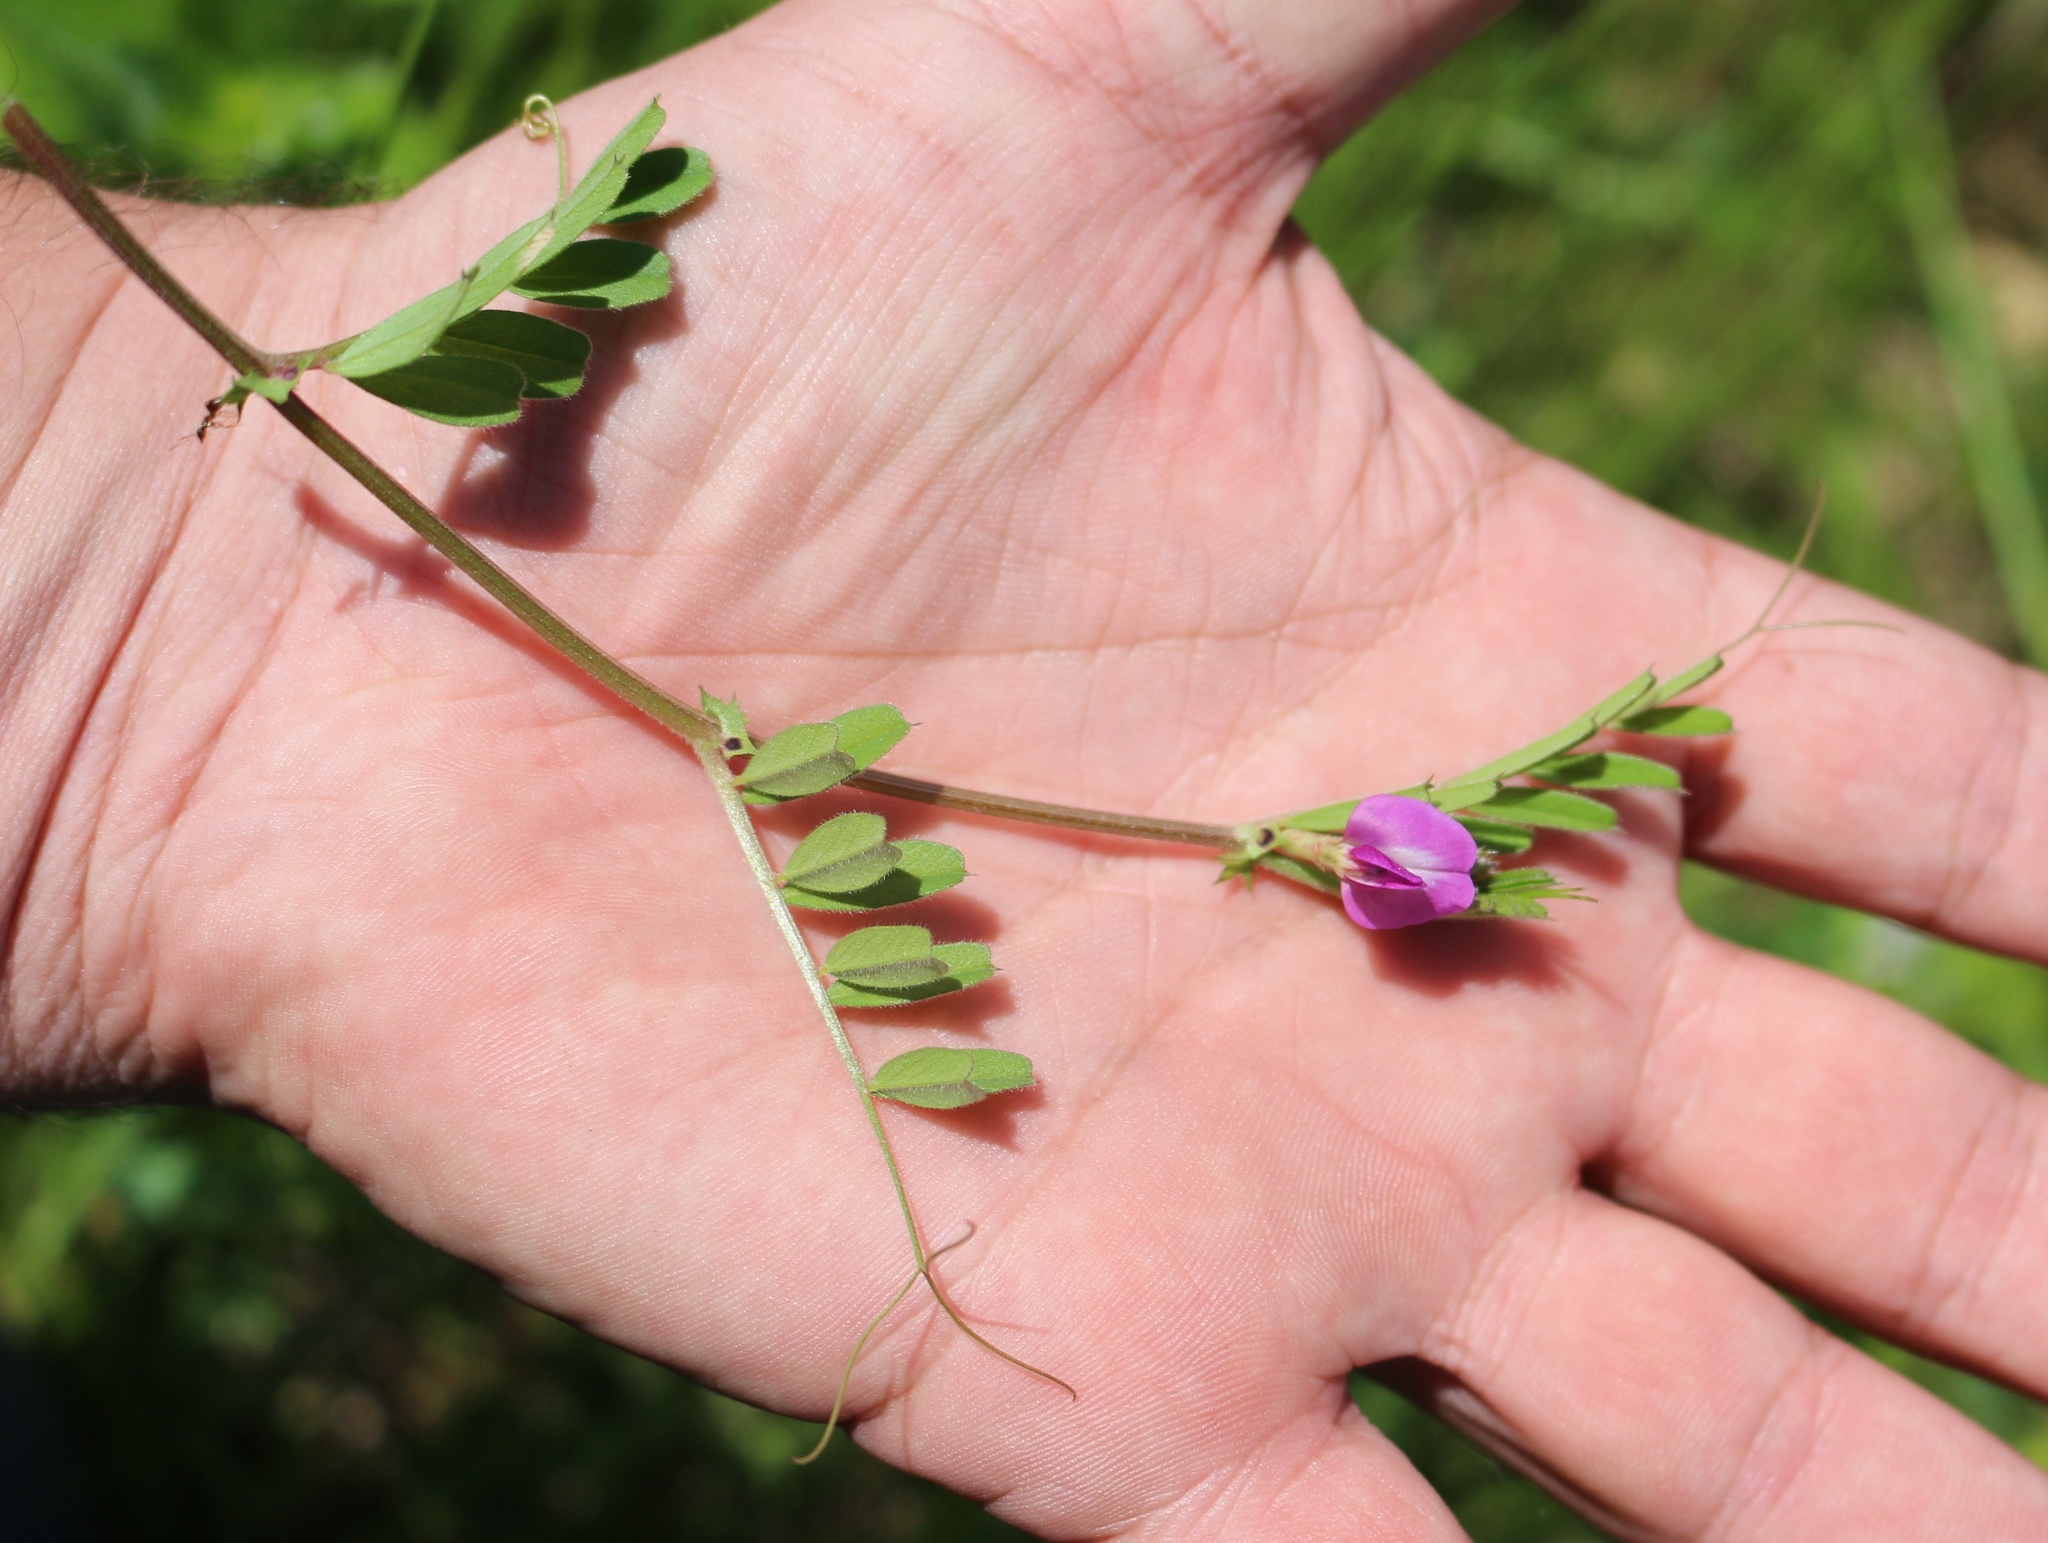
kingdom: Plantae
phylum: Tracheophyta
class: Magnoliopsida
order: Fabales
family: Fabaceae
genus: Vicia
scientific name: Vicia sativa
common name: Garden vetch
